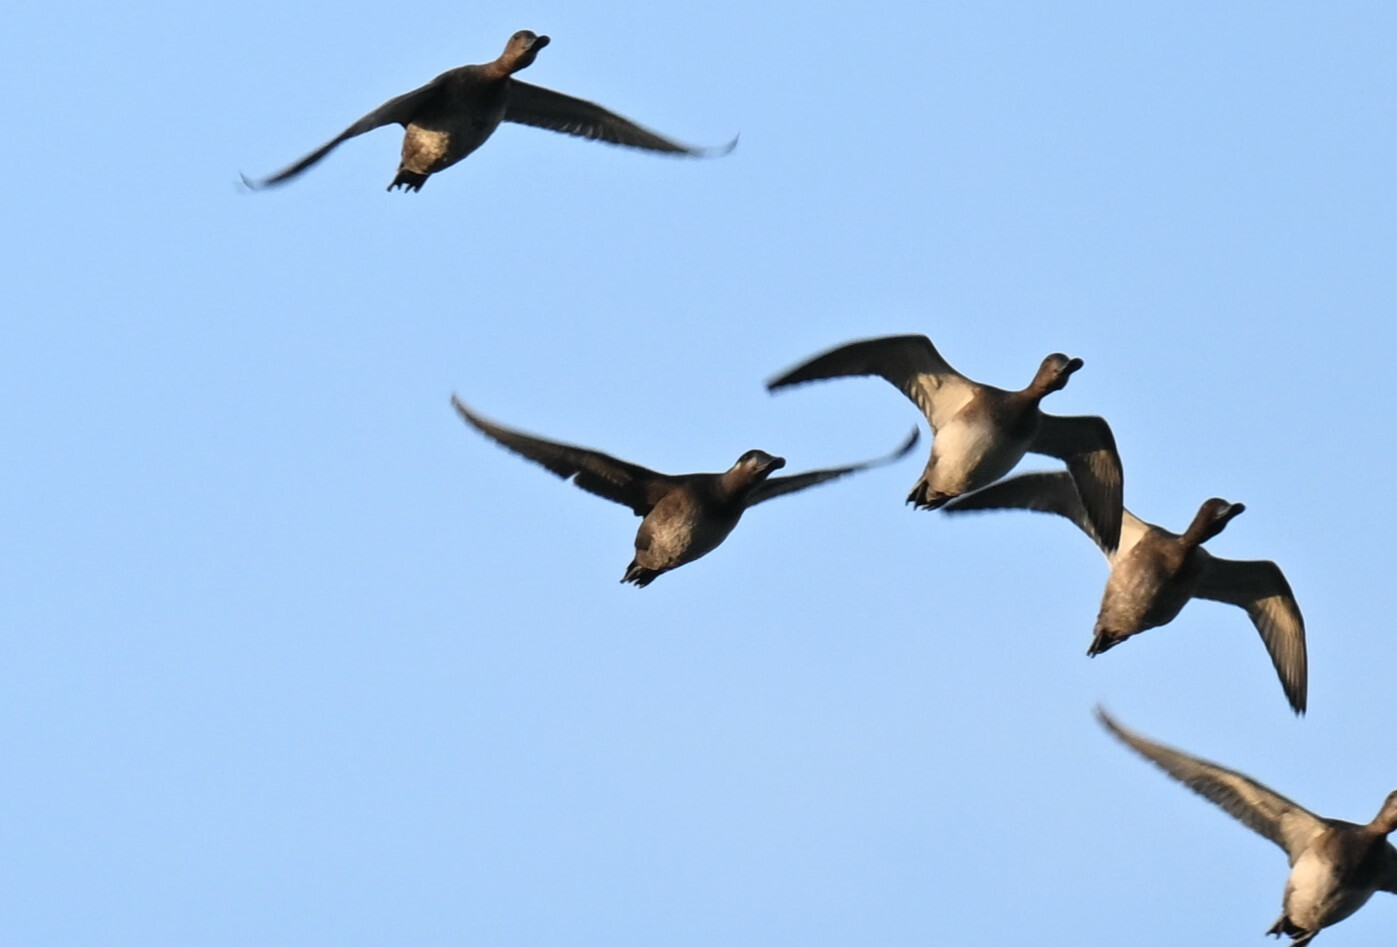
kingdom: Animalia
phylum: Chordata
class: Aves
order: Anseriformes
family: Anatidae
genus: Melanitta
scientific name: Melanitta perspicillata
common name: Surf scoter
